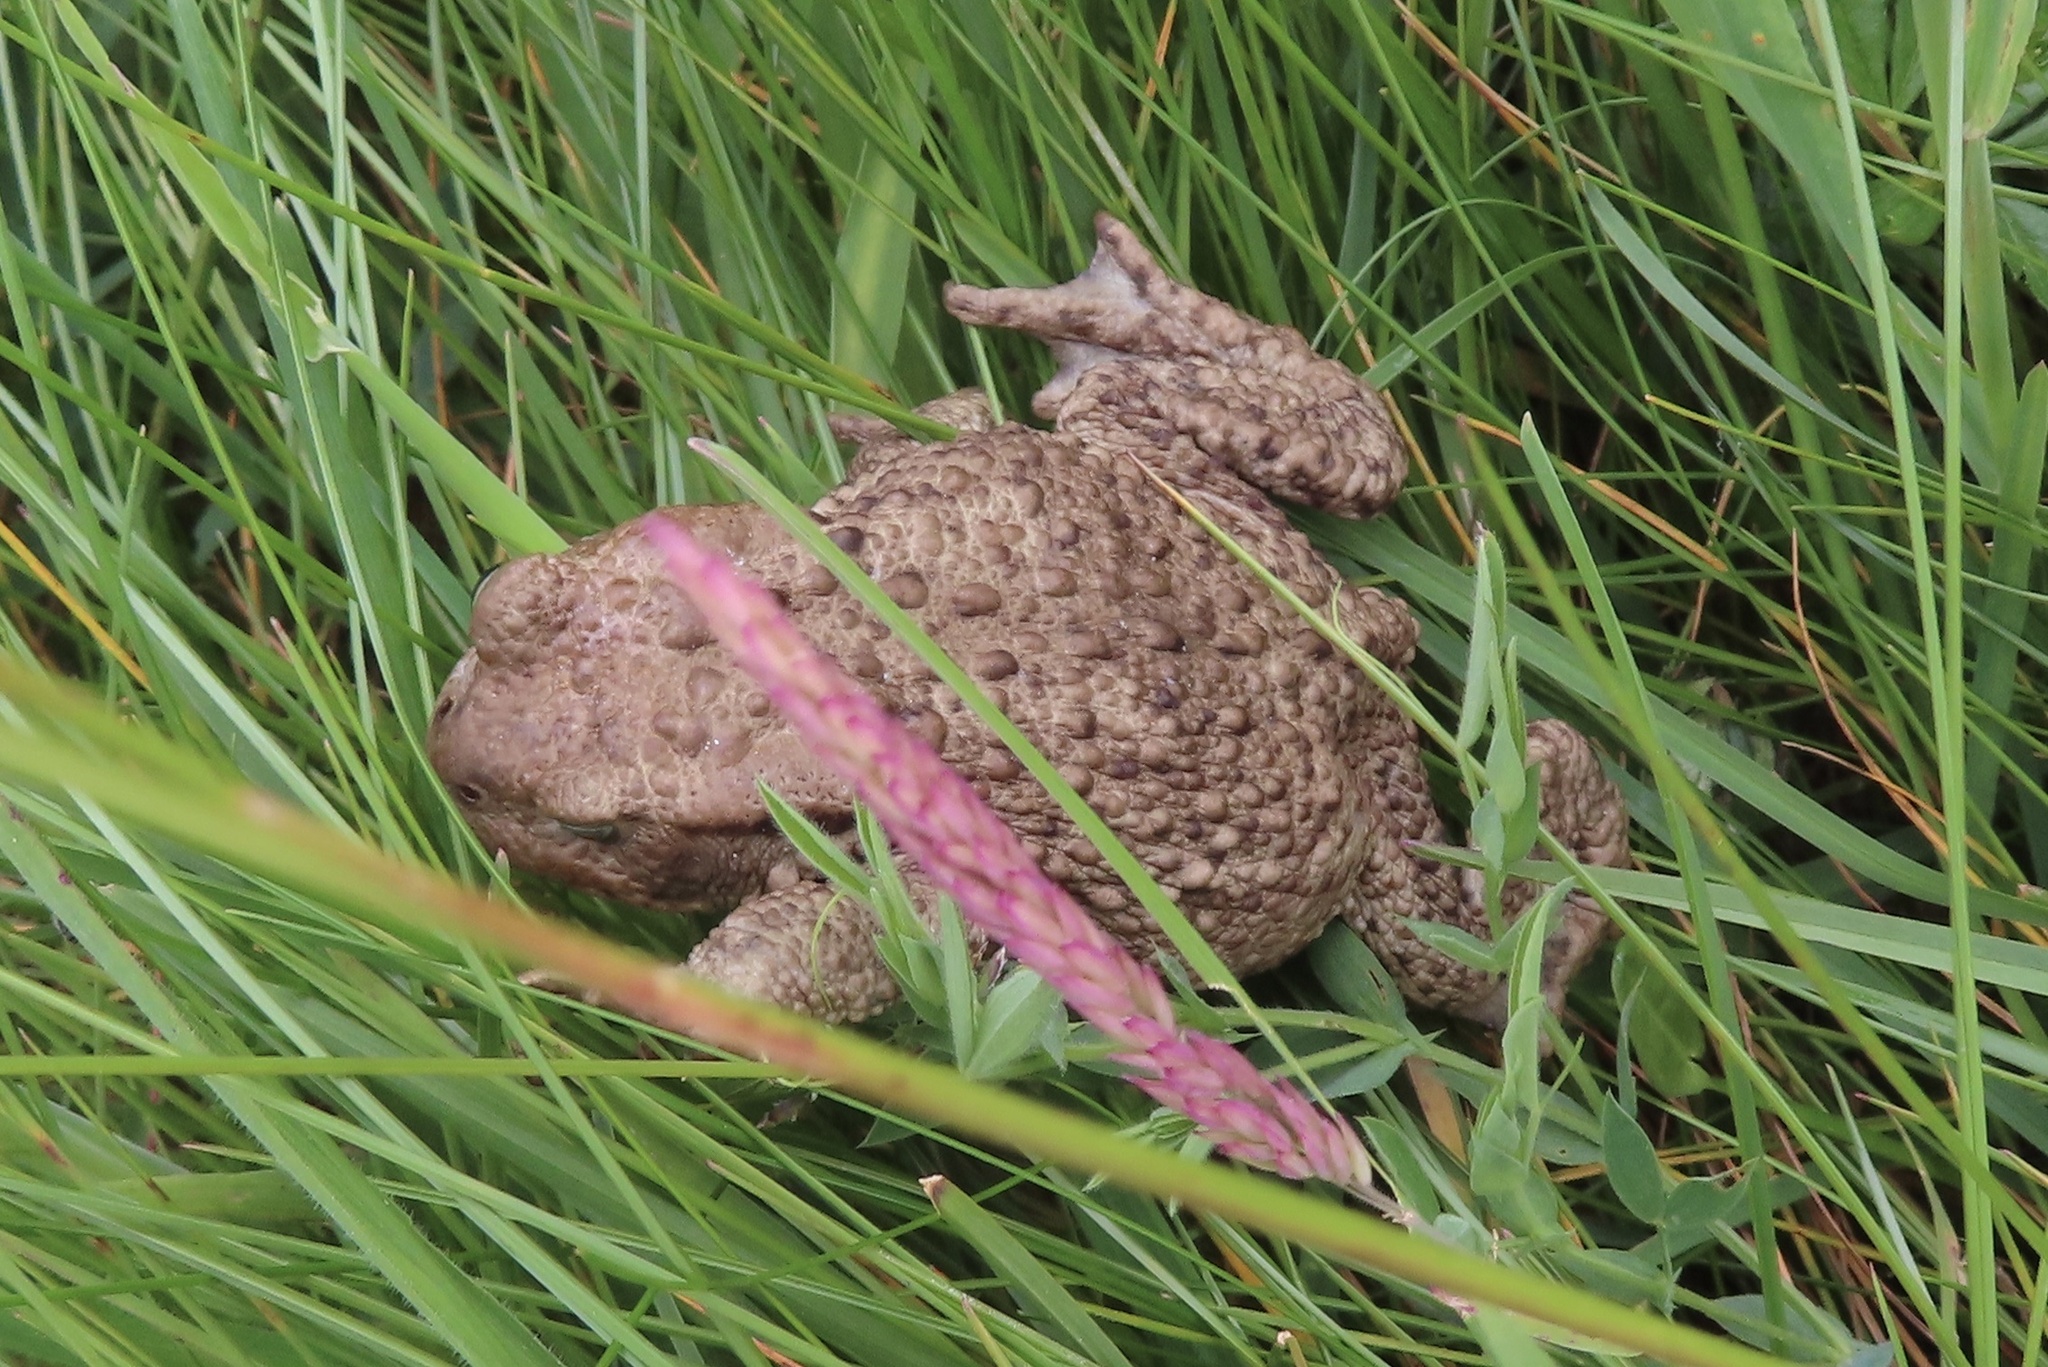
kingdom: Animalia
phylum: Chordata
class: Amphibia
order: Anura
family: Bufonidae
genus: Bufo
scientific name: Bufo bufo
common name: Common toad
